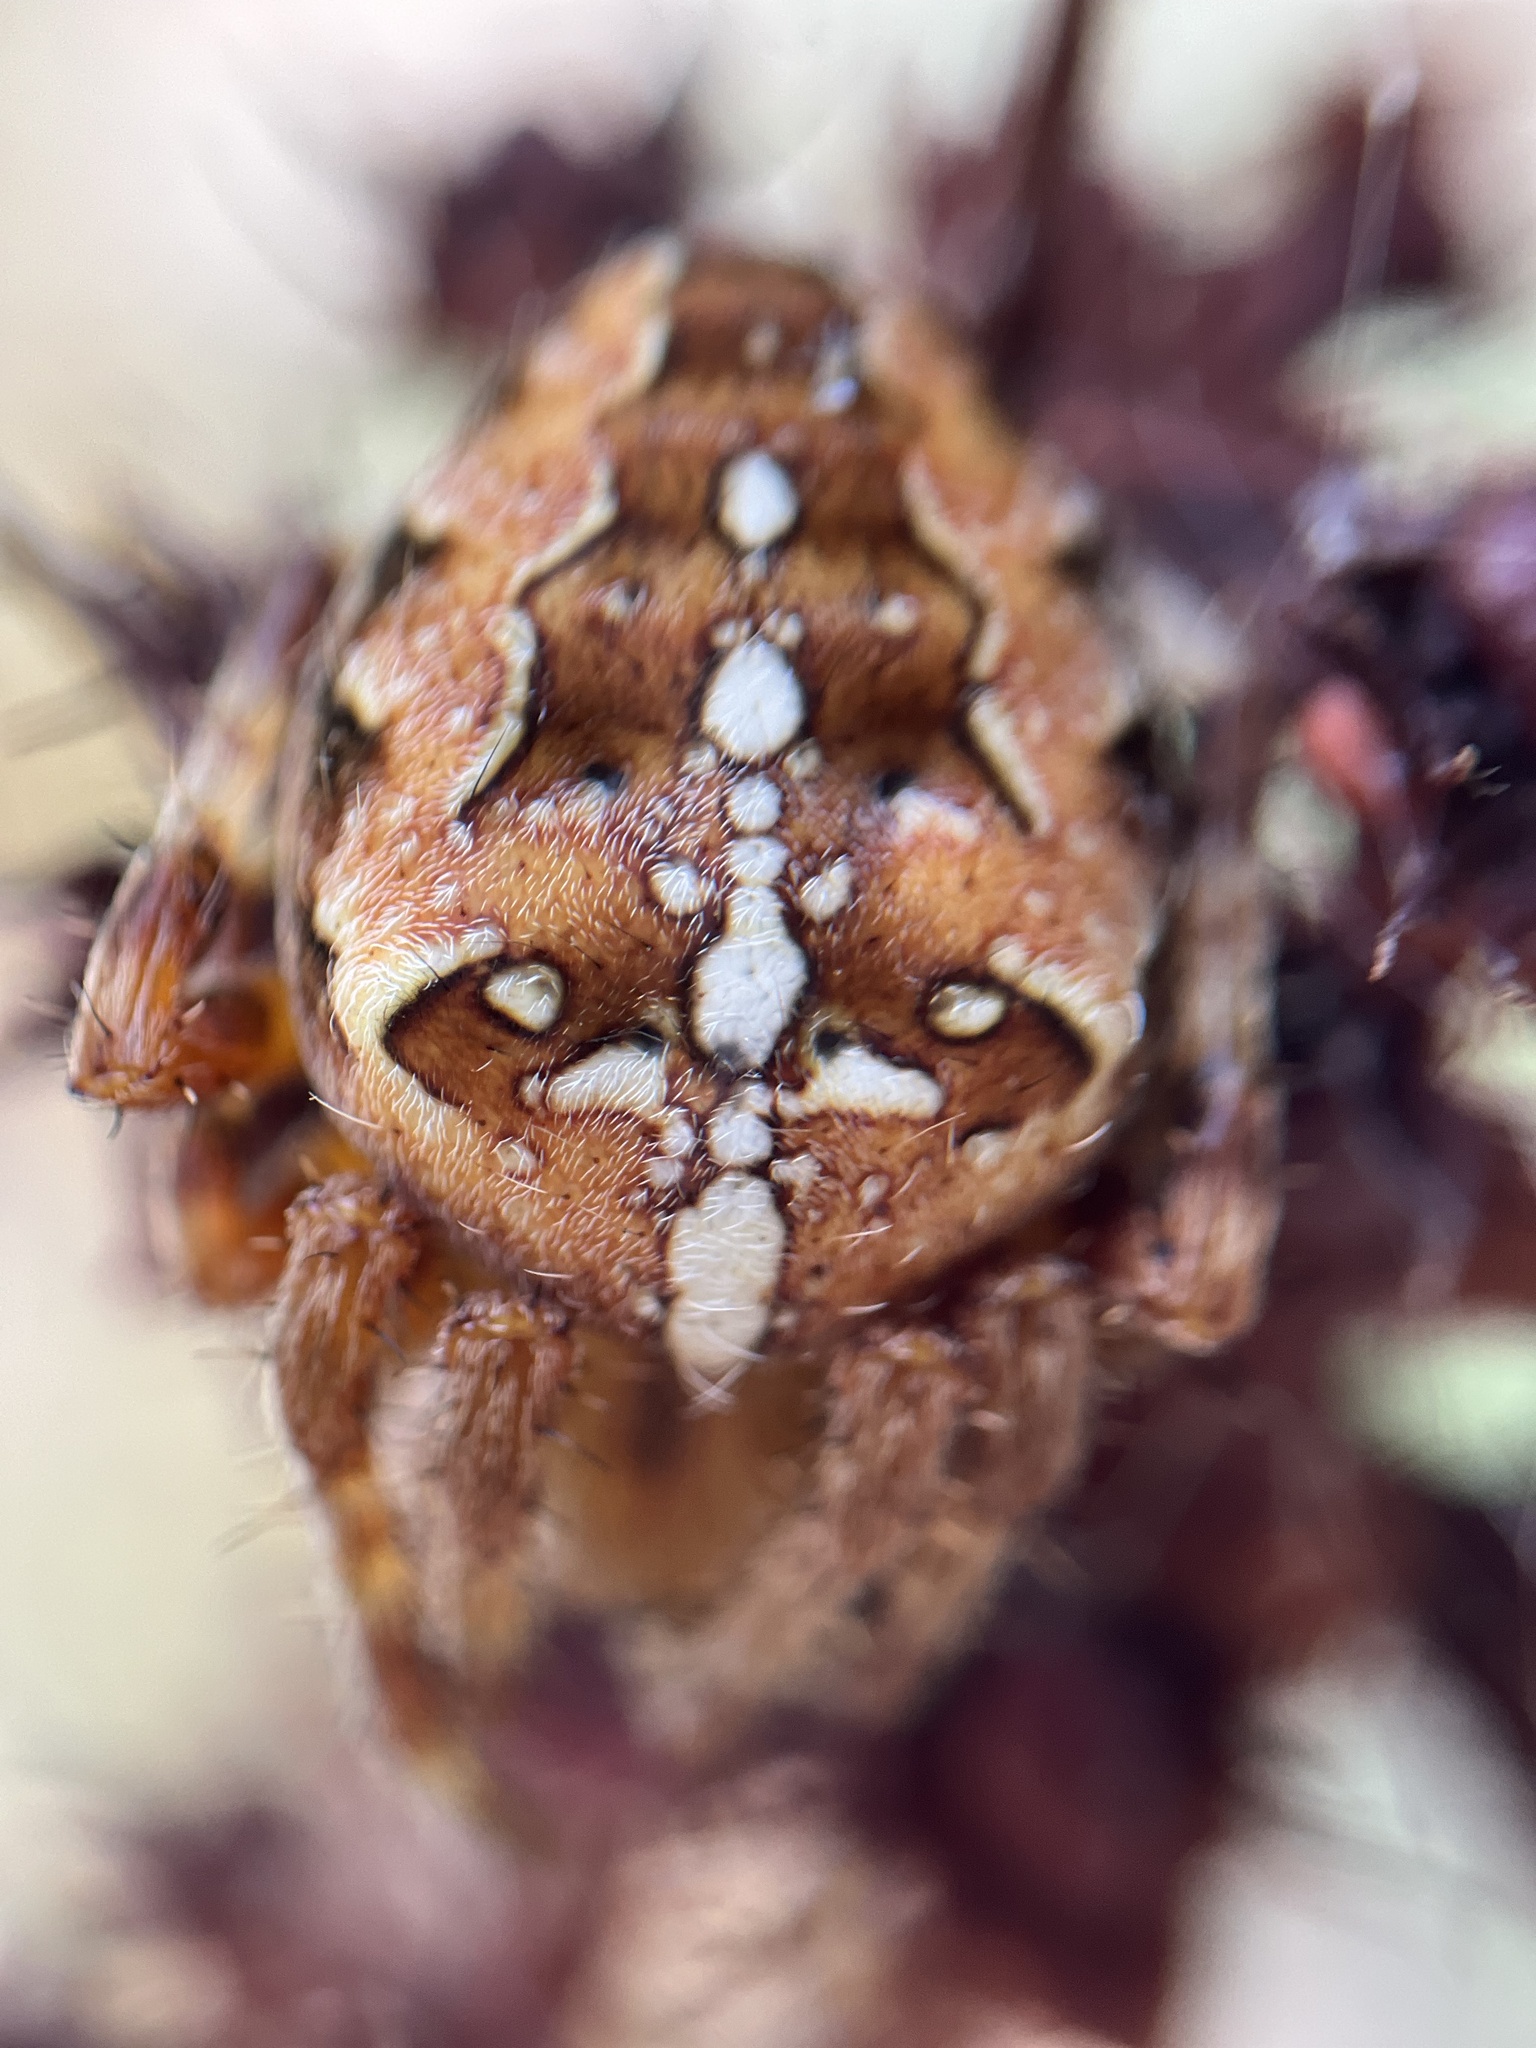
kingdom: Animalia
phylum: Arthropoda
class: Arachnida
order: Araneae
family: Araneidae
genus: Araneus
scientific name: Araneus diadematus
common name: Cross orbweaver
